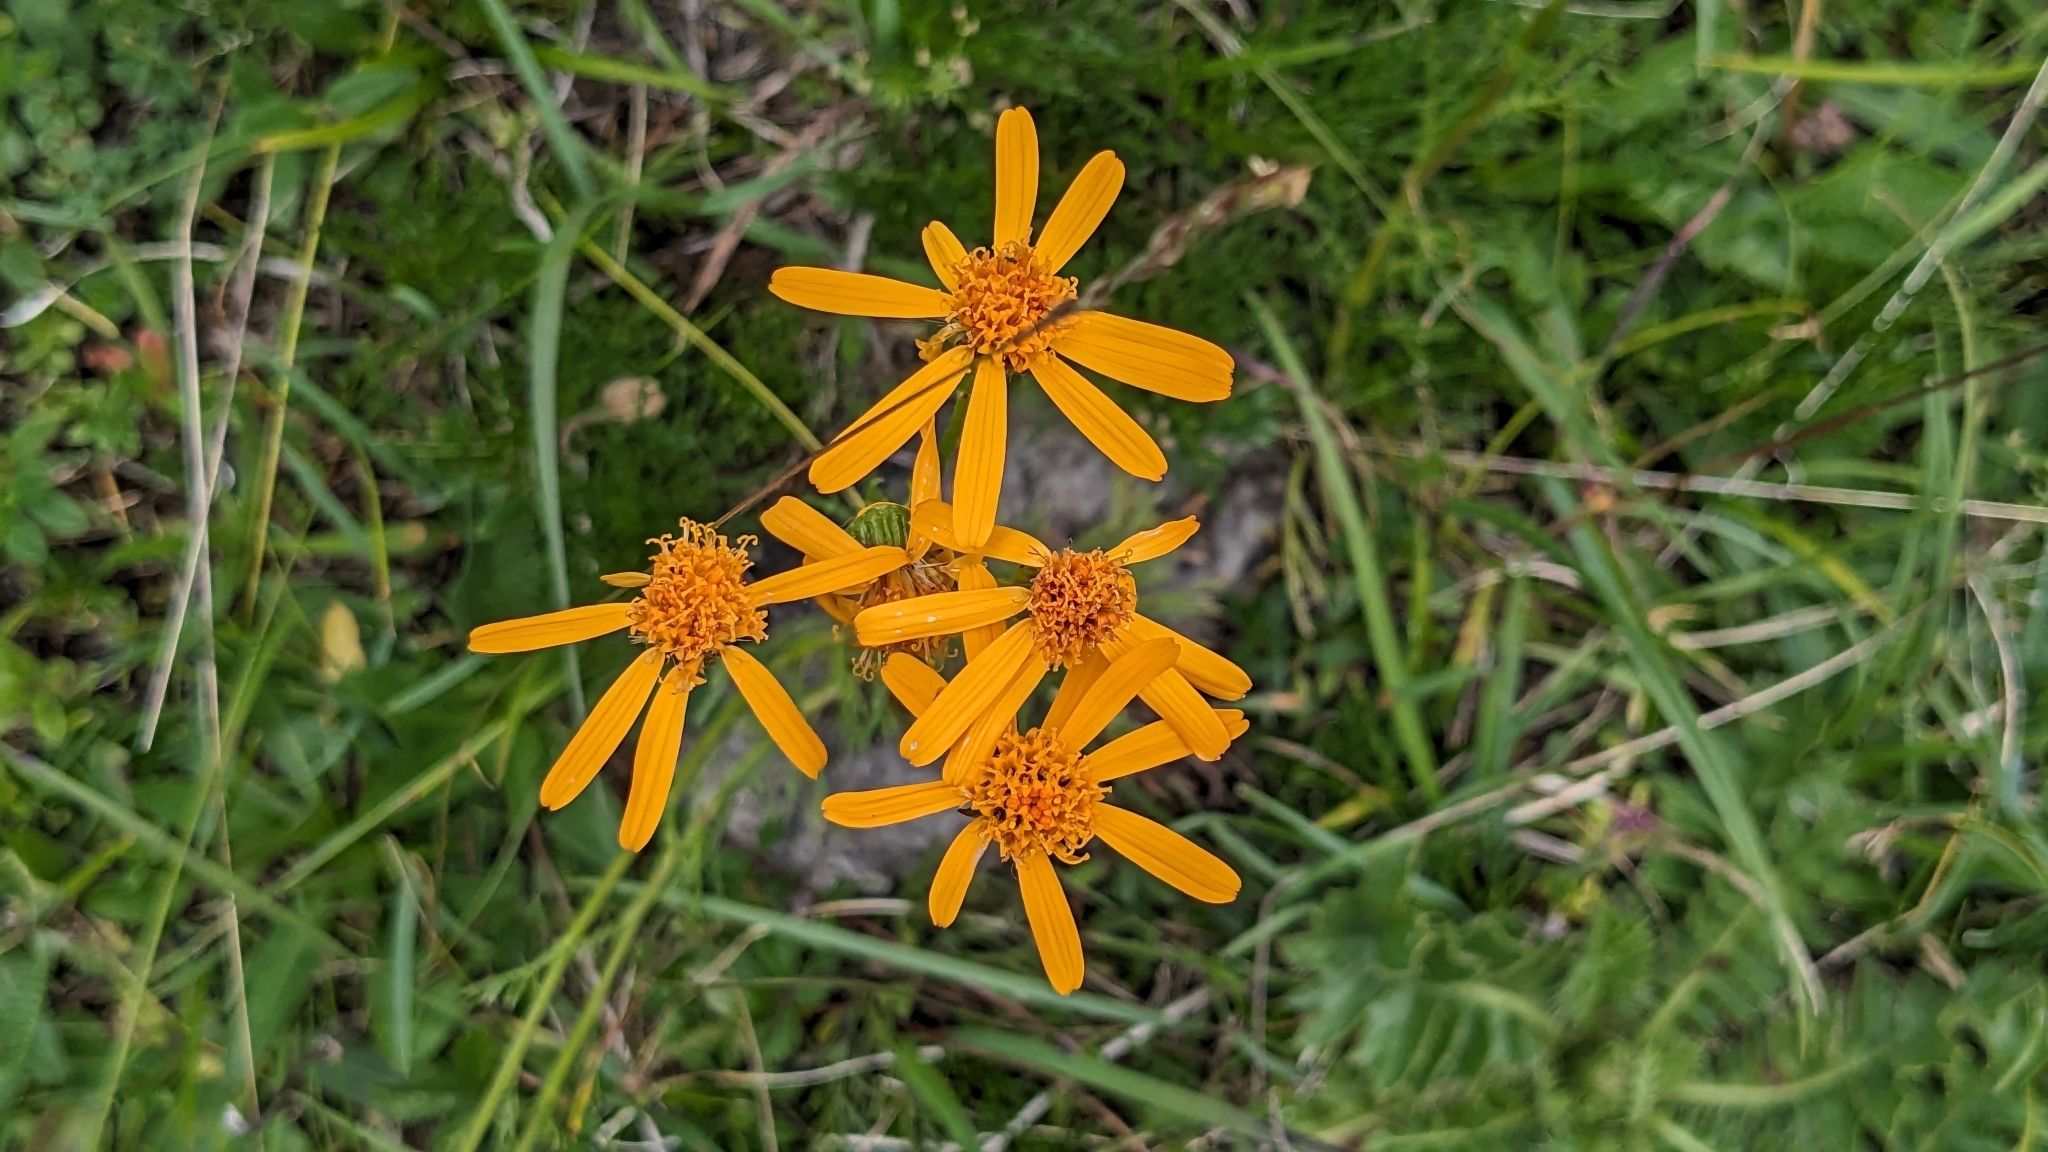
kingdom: Plantae
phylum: Tracheophyta
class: Magnoliopsida
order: Asterales
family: Asteraceae
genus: Jacobaea
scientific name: Jacobaea abrotanifolia
